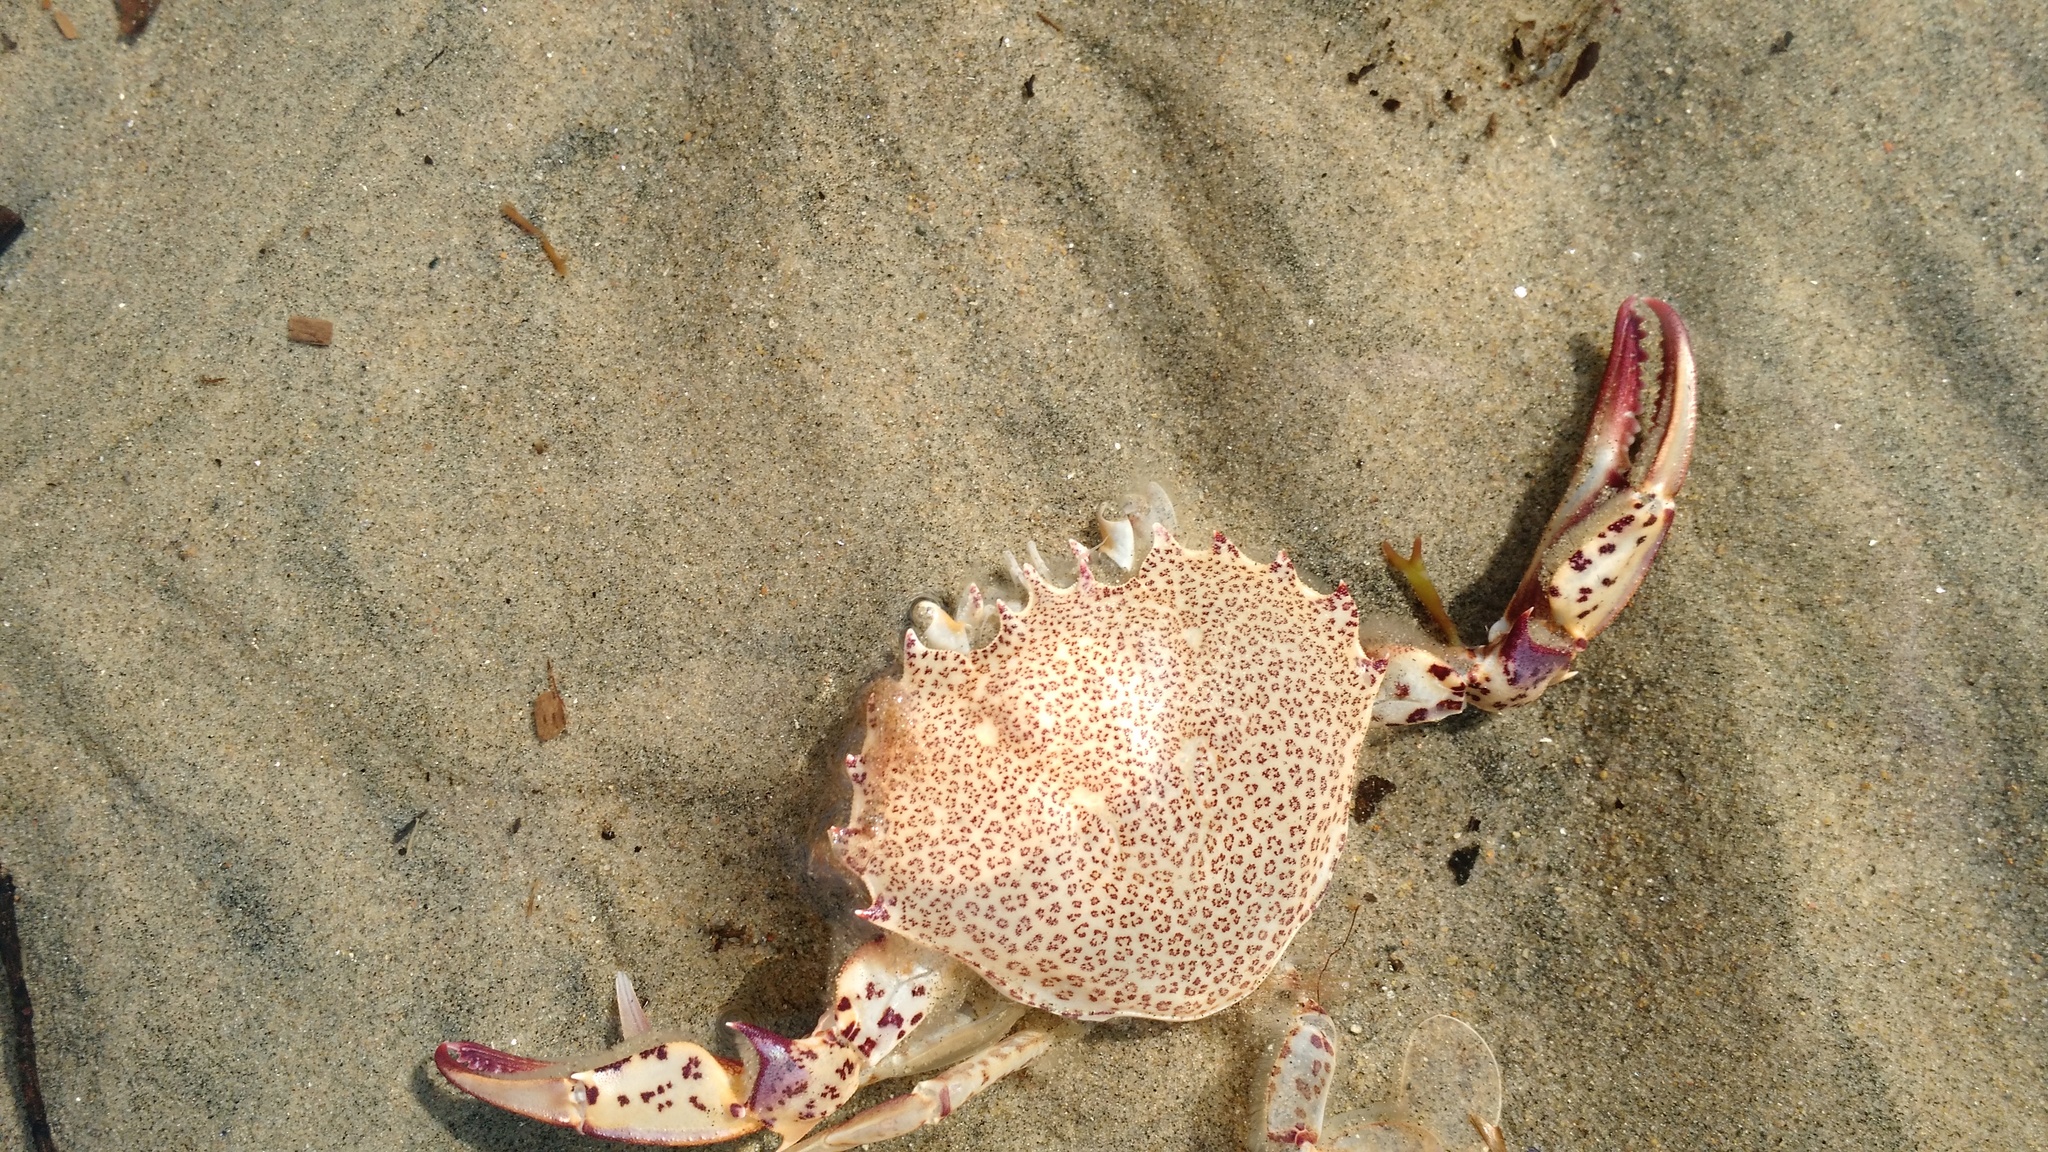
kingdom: Animalia
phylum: Arthropoda
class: Malacostraca
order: Decapoda
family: Ovalipidae
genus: Ovalipes
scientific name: Ovalipes ocellatus
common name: Lady crab
